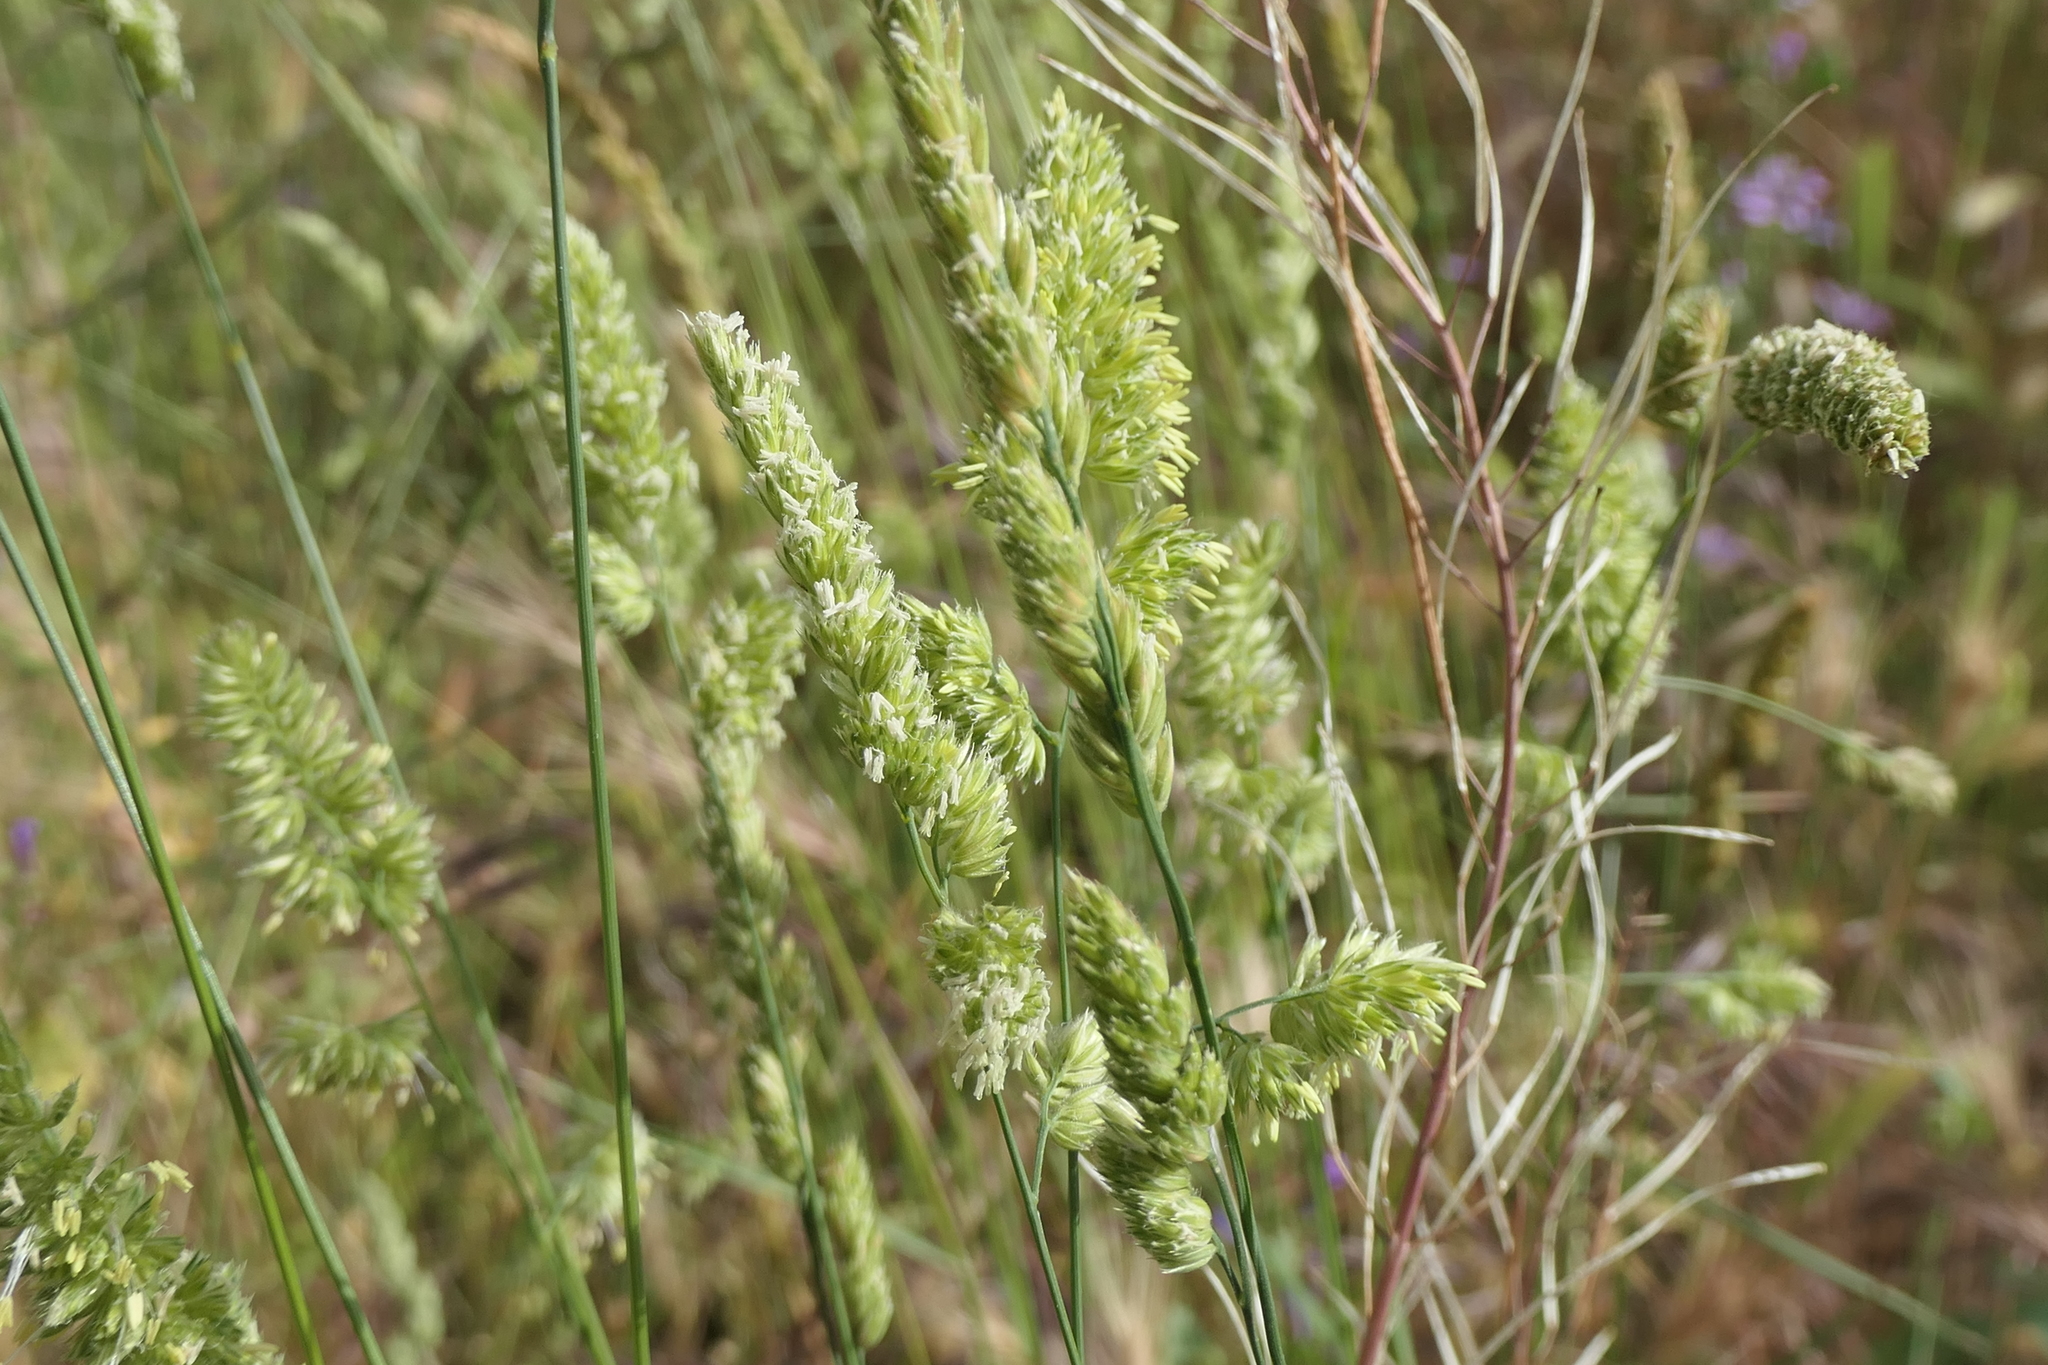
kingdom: Plantae
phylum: Tracheophyta
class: Liliopsida
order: Poales
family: Poaceae
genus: Dactylis
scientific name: Dactylis glomerata
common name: Orchardgrass
